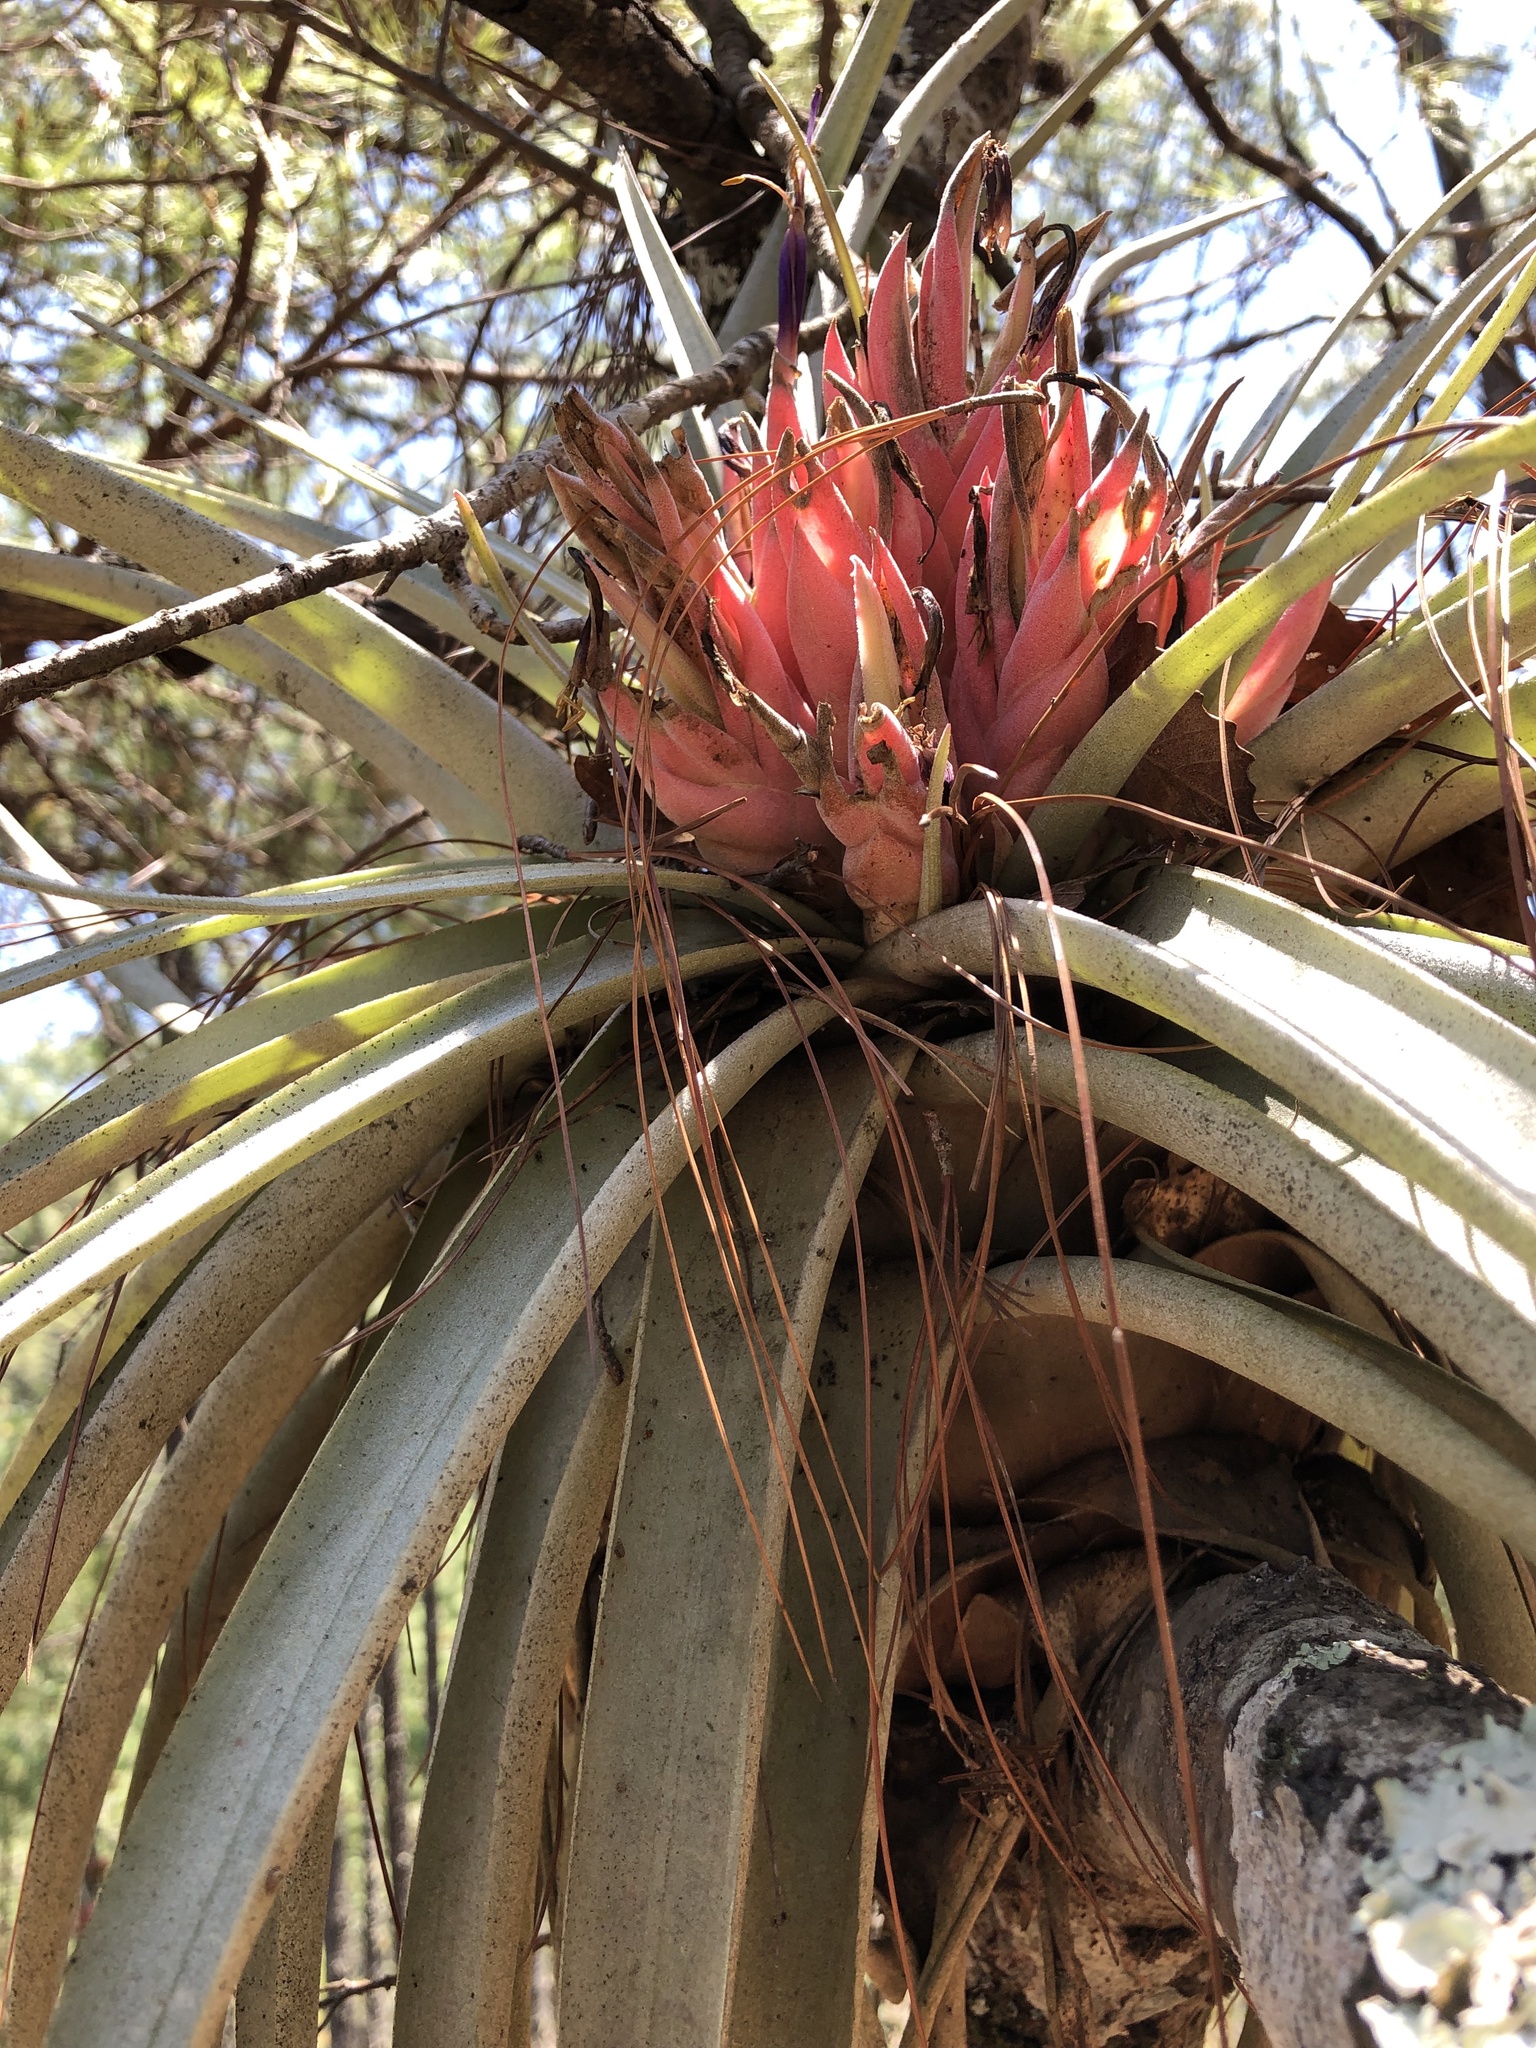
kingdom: Plantae
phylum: Tracheophyta
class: Liliopsida
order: Poales
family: Bromeliaceae
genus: Tillandsia
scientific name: Tillandsia carlsoniae
